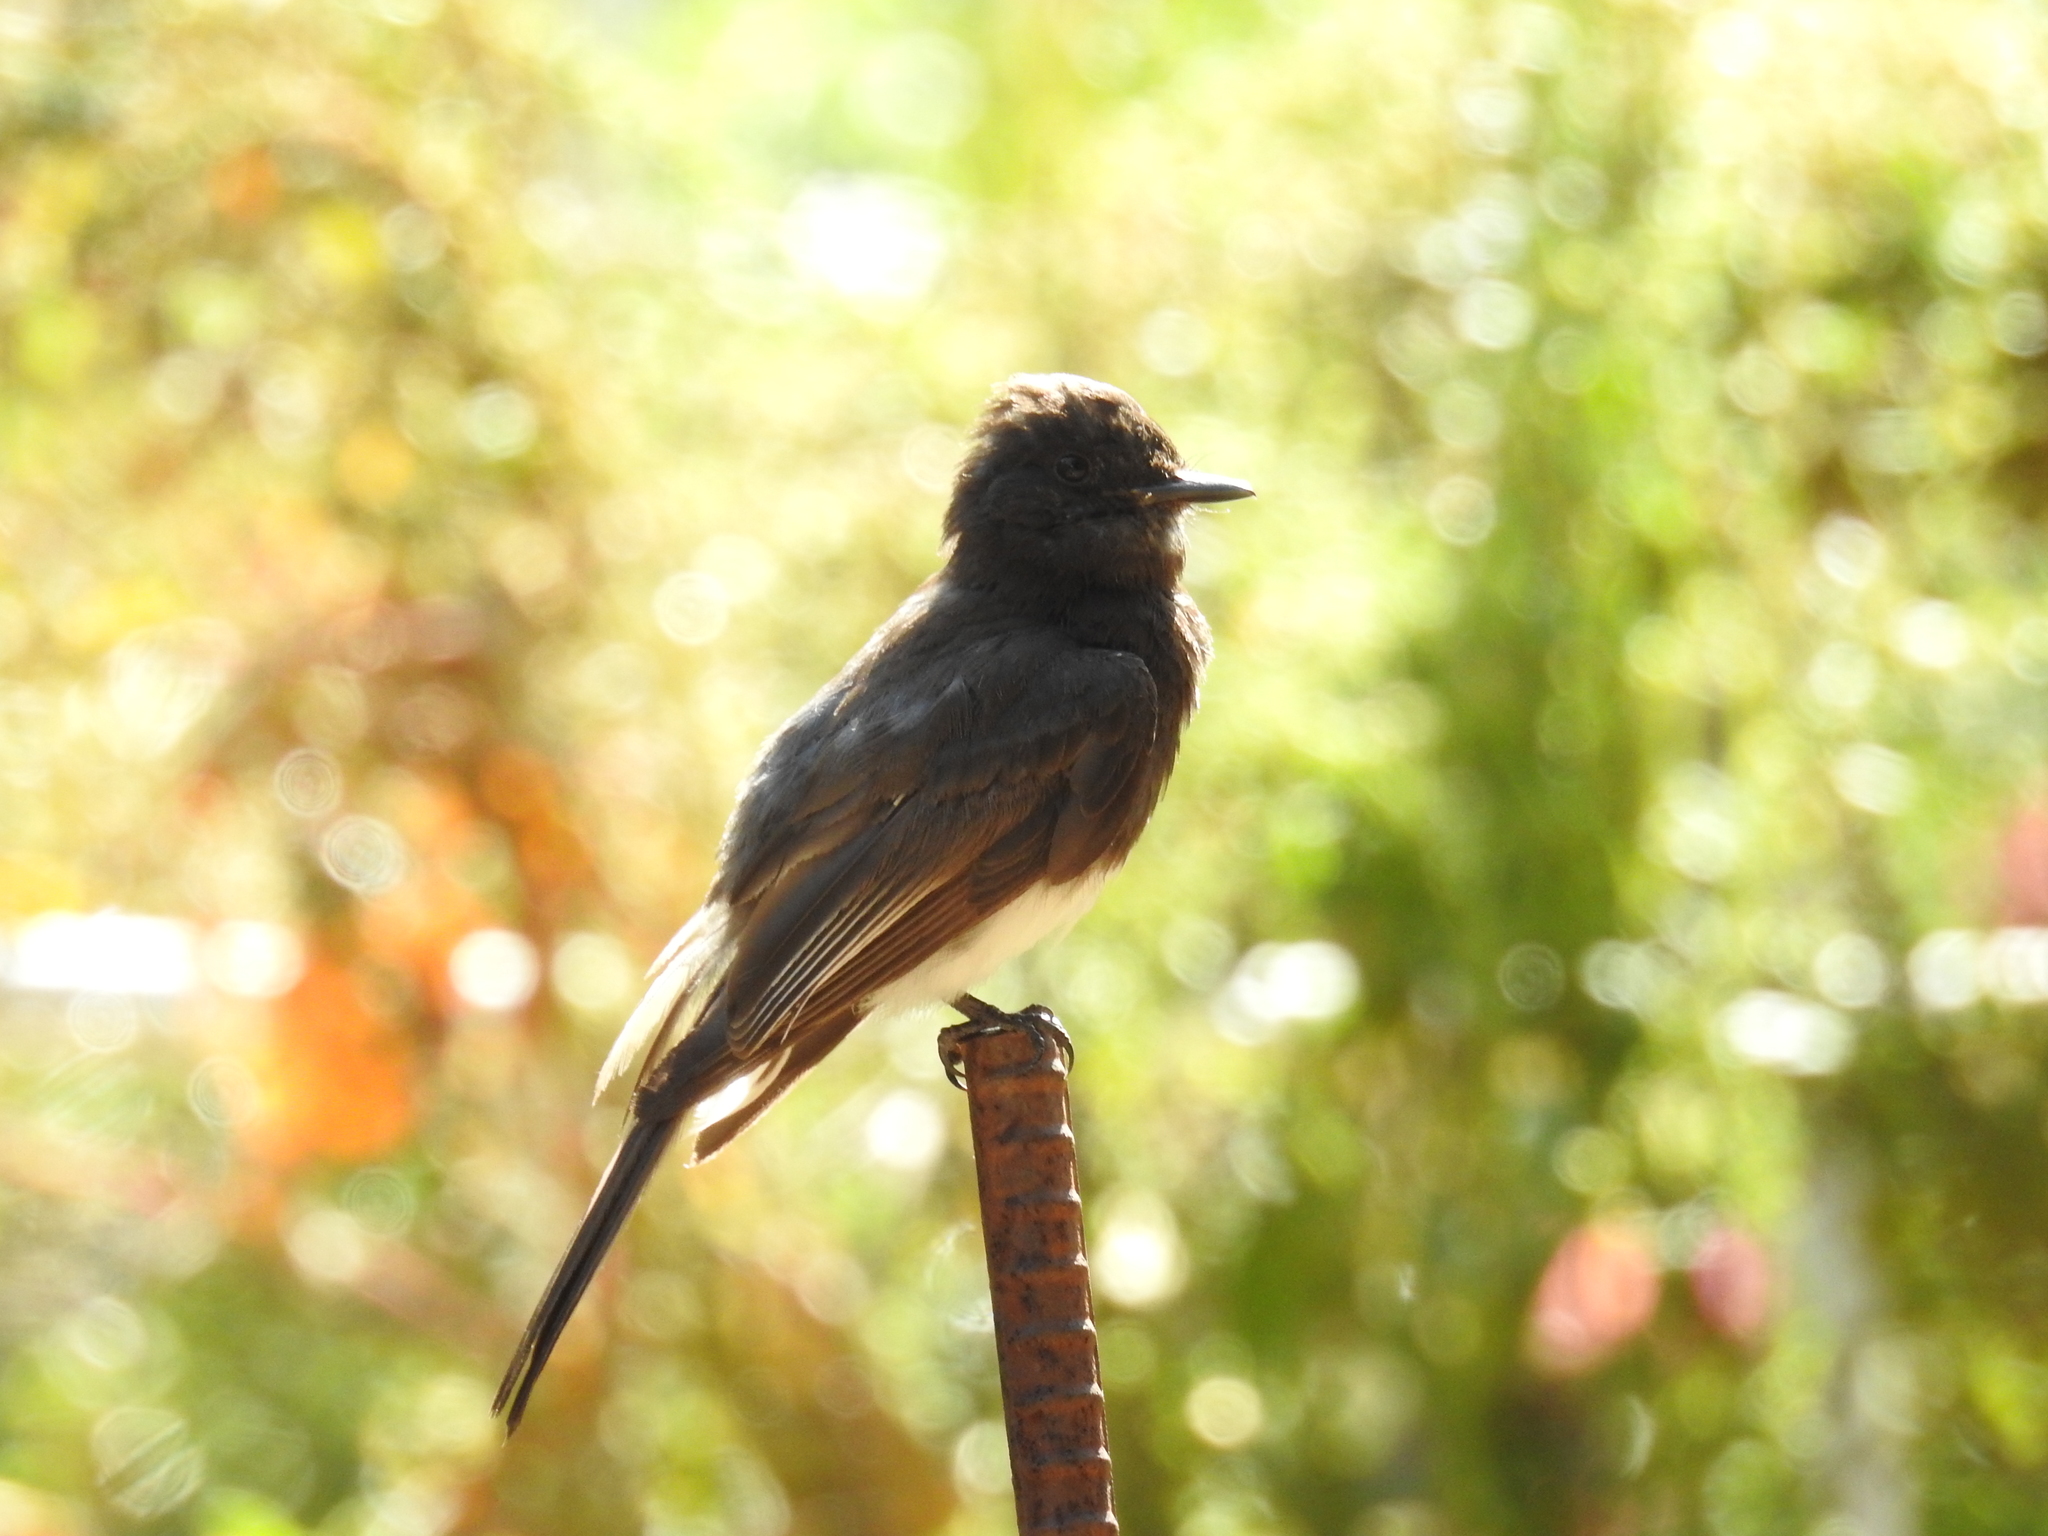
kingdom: Animalia
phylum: Chordata
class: Aves
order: Passeriformes
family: Tyrannidae
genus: Sayornis
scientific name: Sayornis nigricans
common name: Black phoebe
